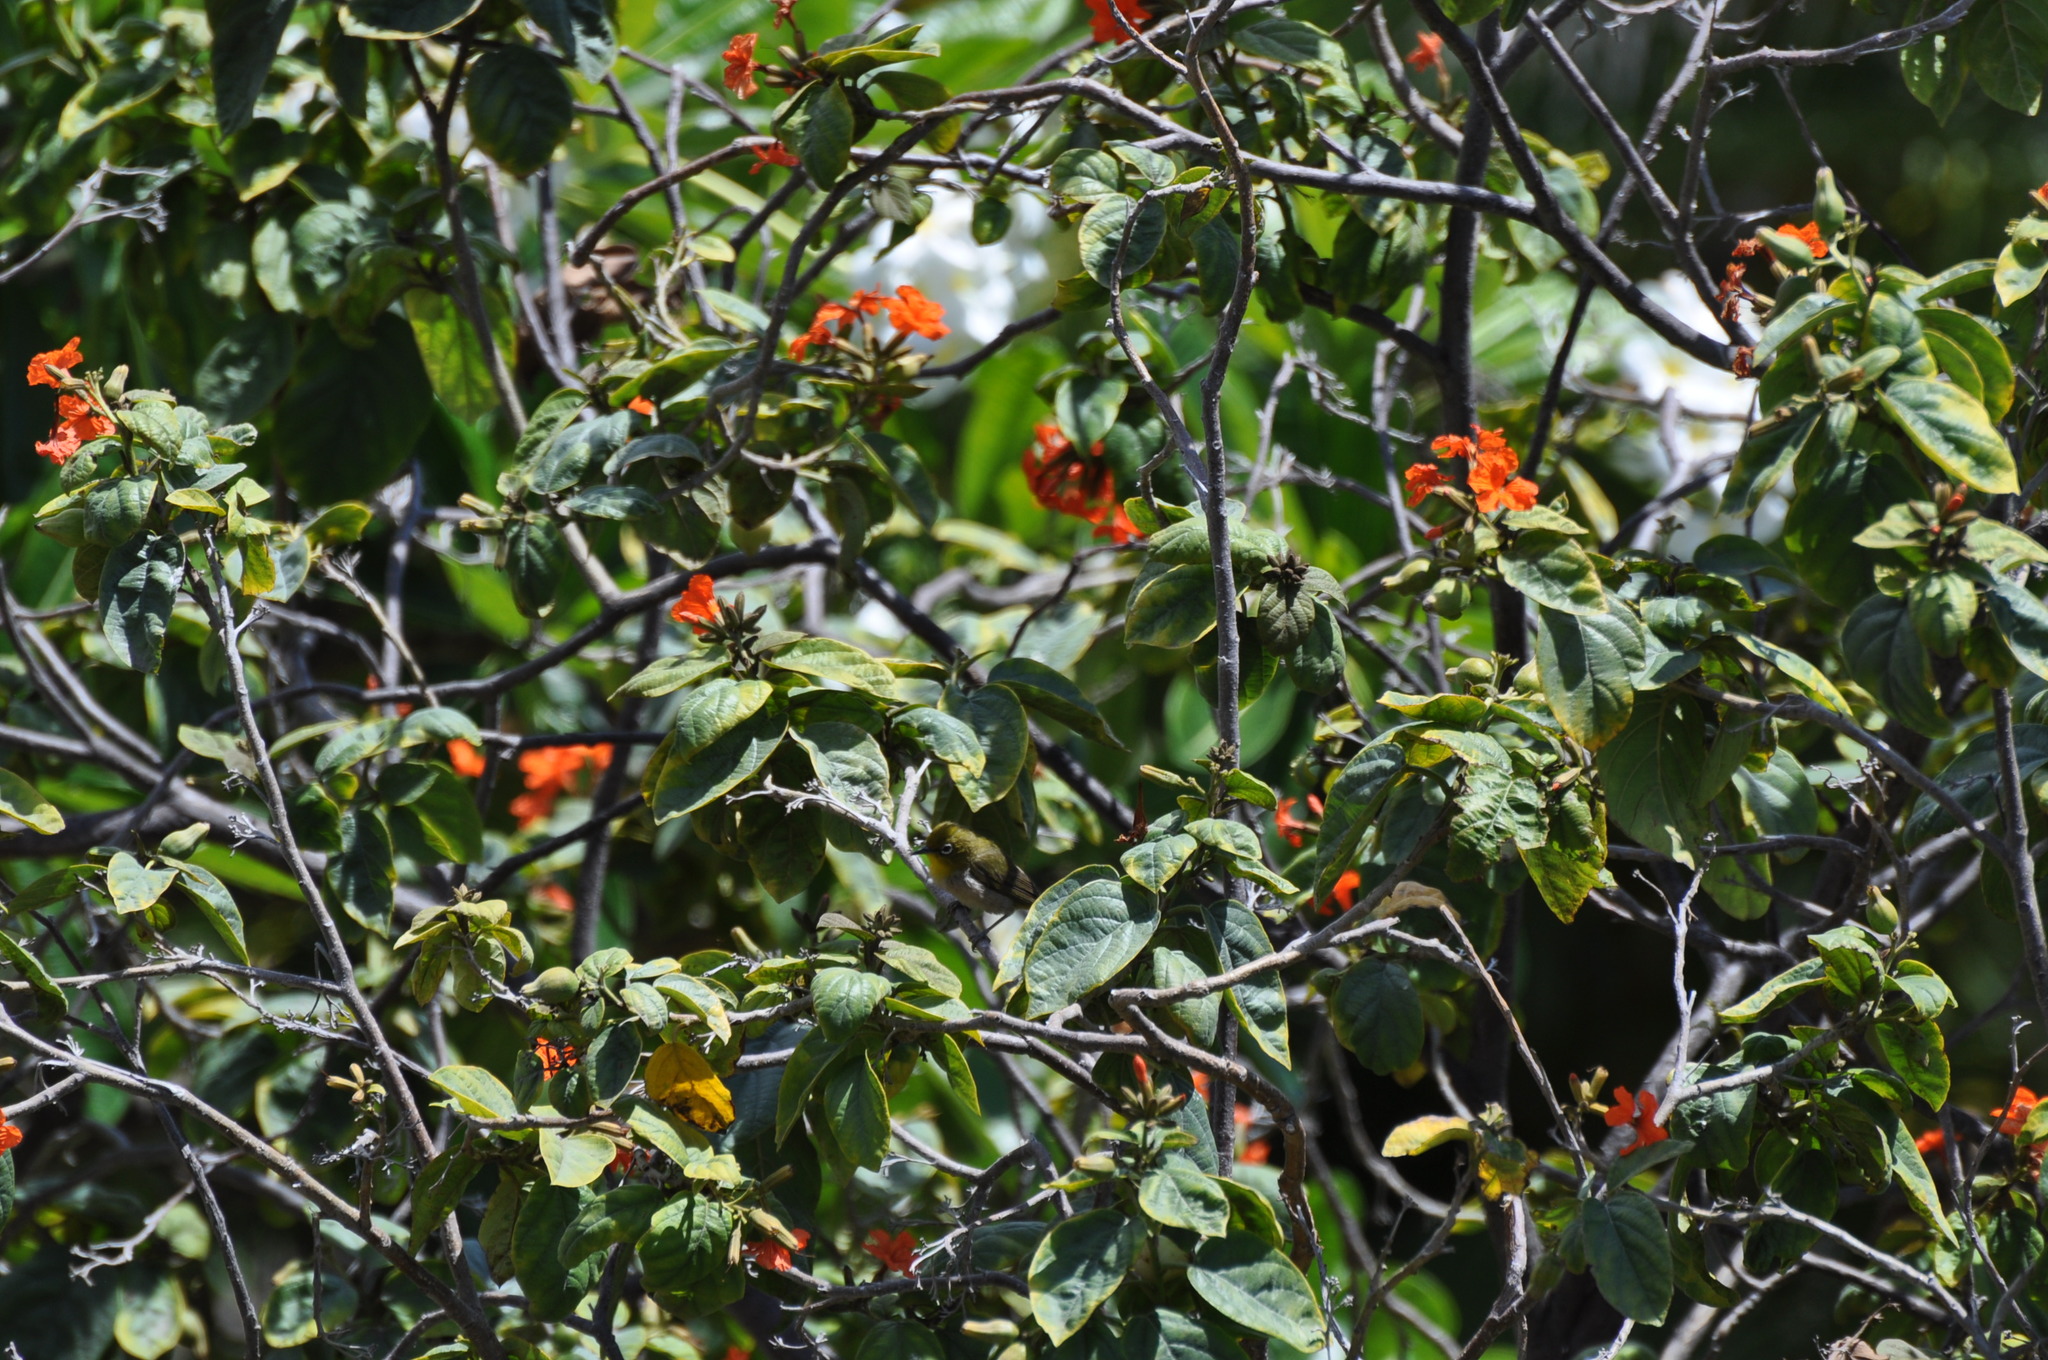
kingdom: Animalia
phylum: Chordata
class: Aves
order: Passeriformes
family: Zosteropidae
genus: Zosterops
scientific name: Zosterops japonicus
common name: Japanese white-eye
